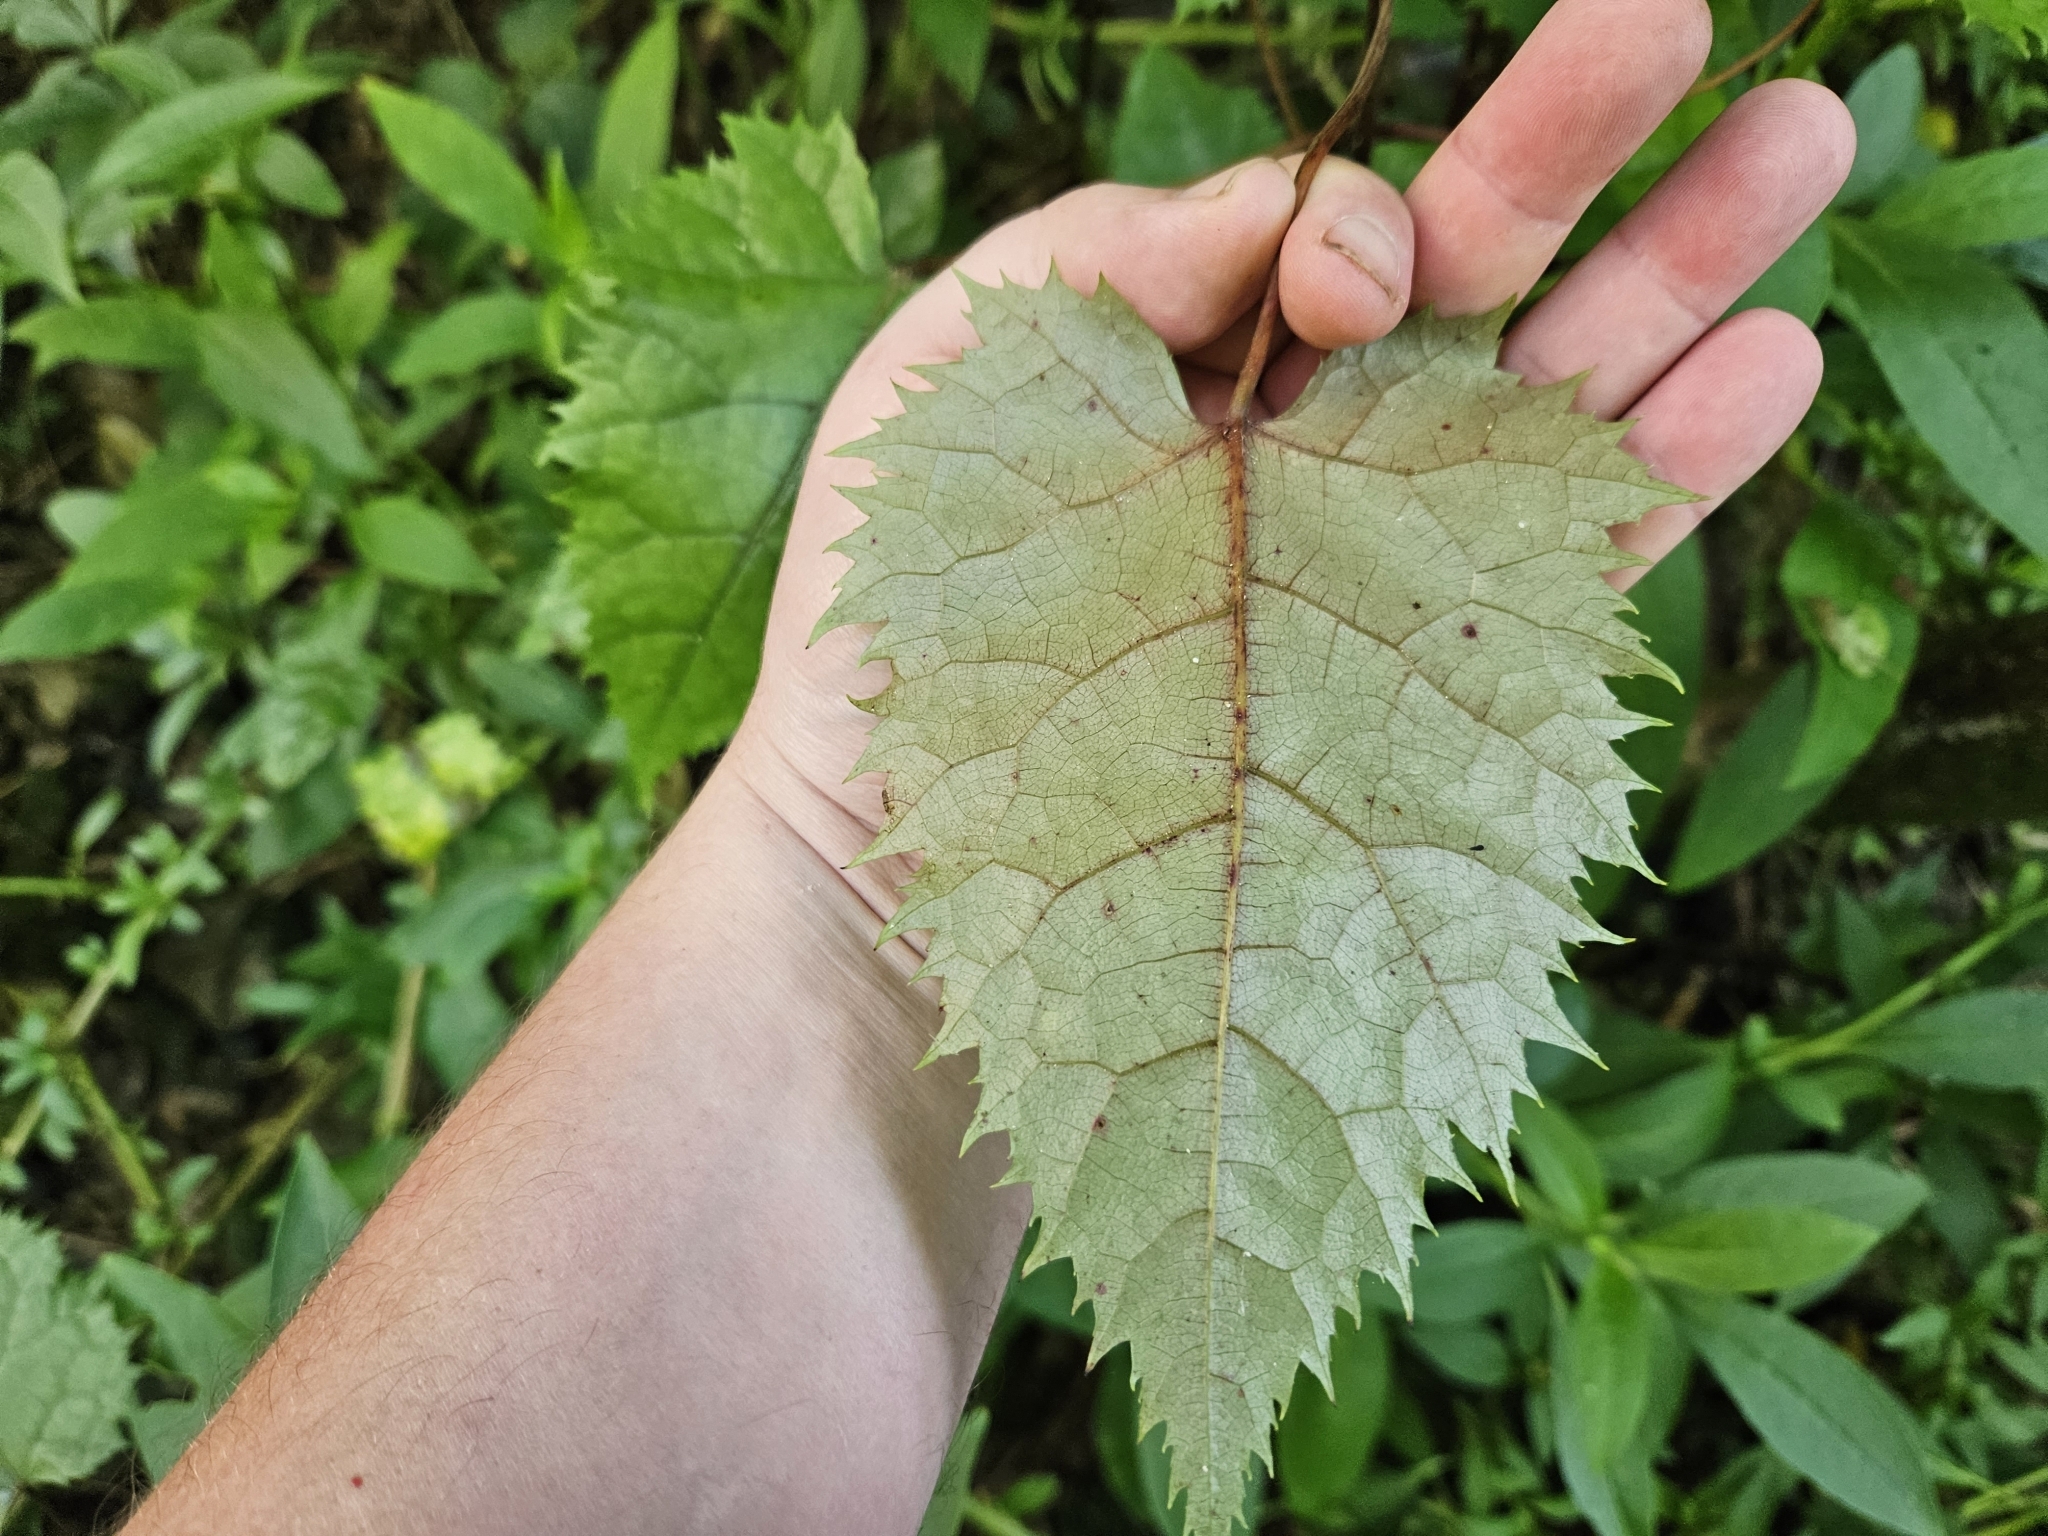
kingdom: Plantae
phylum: Tracheophyta
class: Magnoliopsida
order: Oxalidales
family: Elaeocarpaceae
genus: Aristotelia
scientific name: Aristotelia serrata
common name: New zealand wineberry
